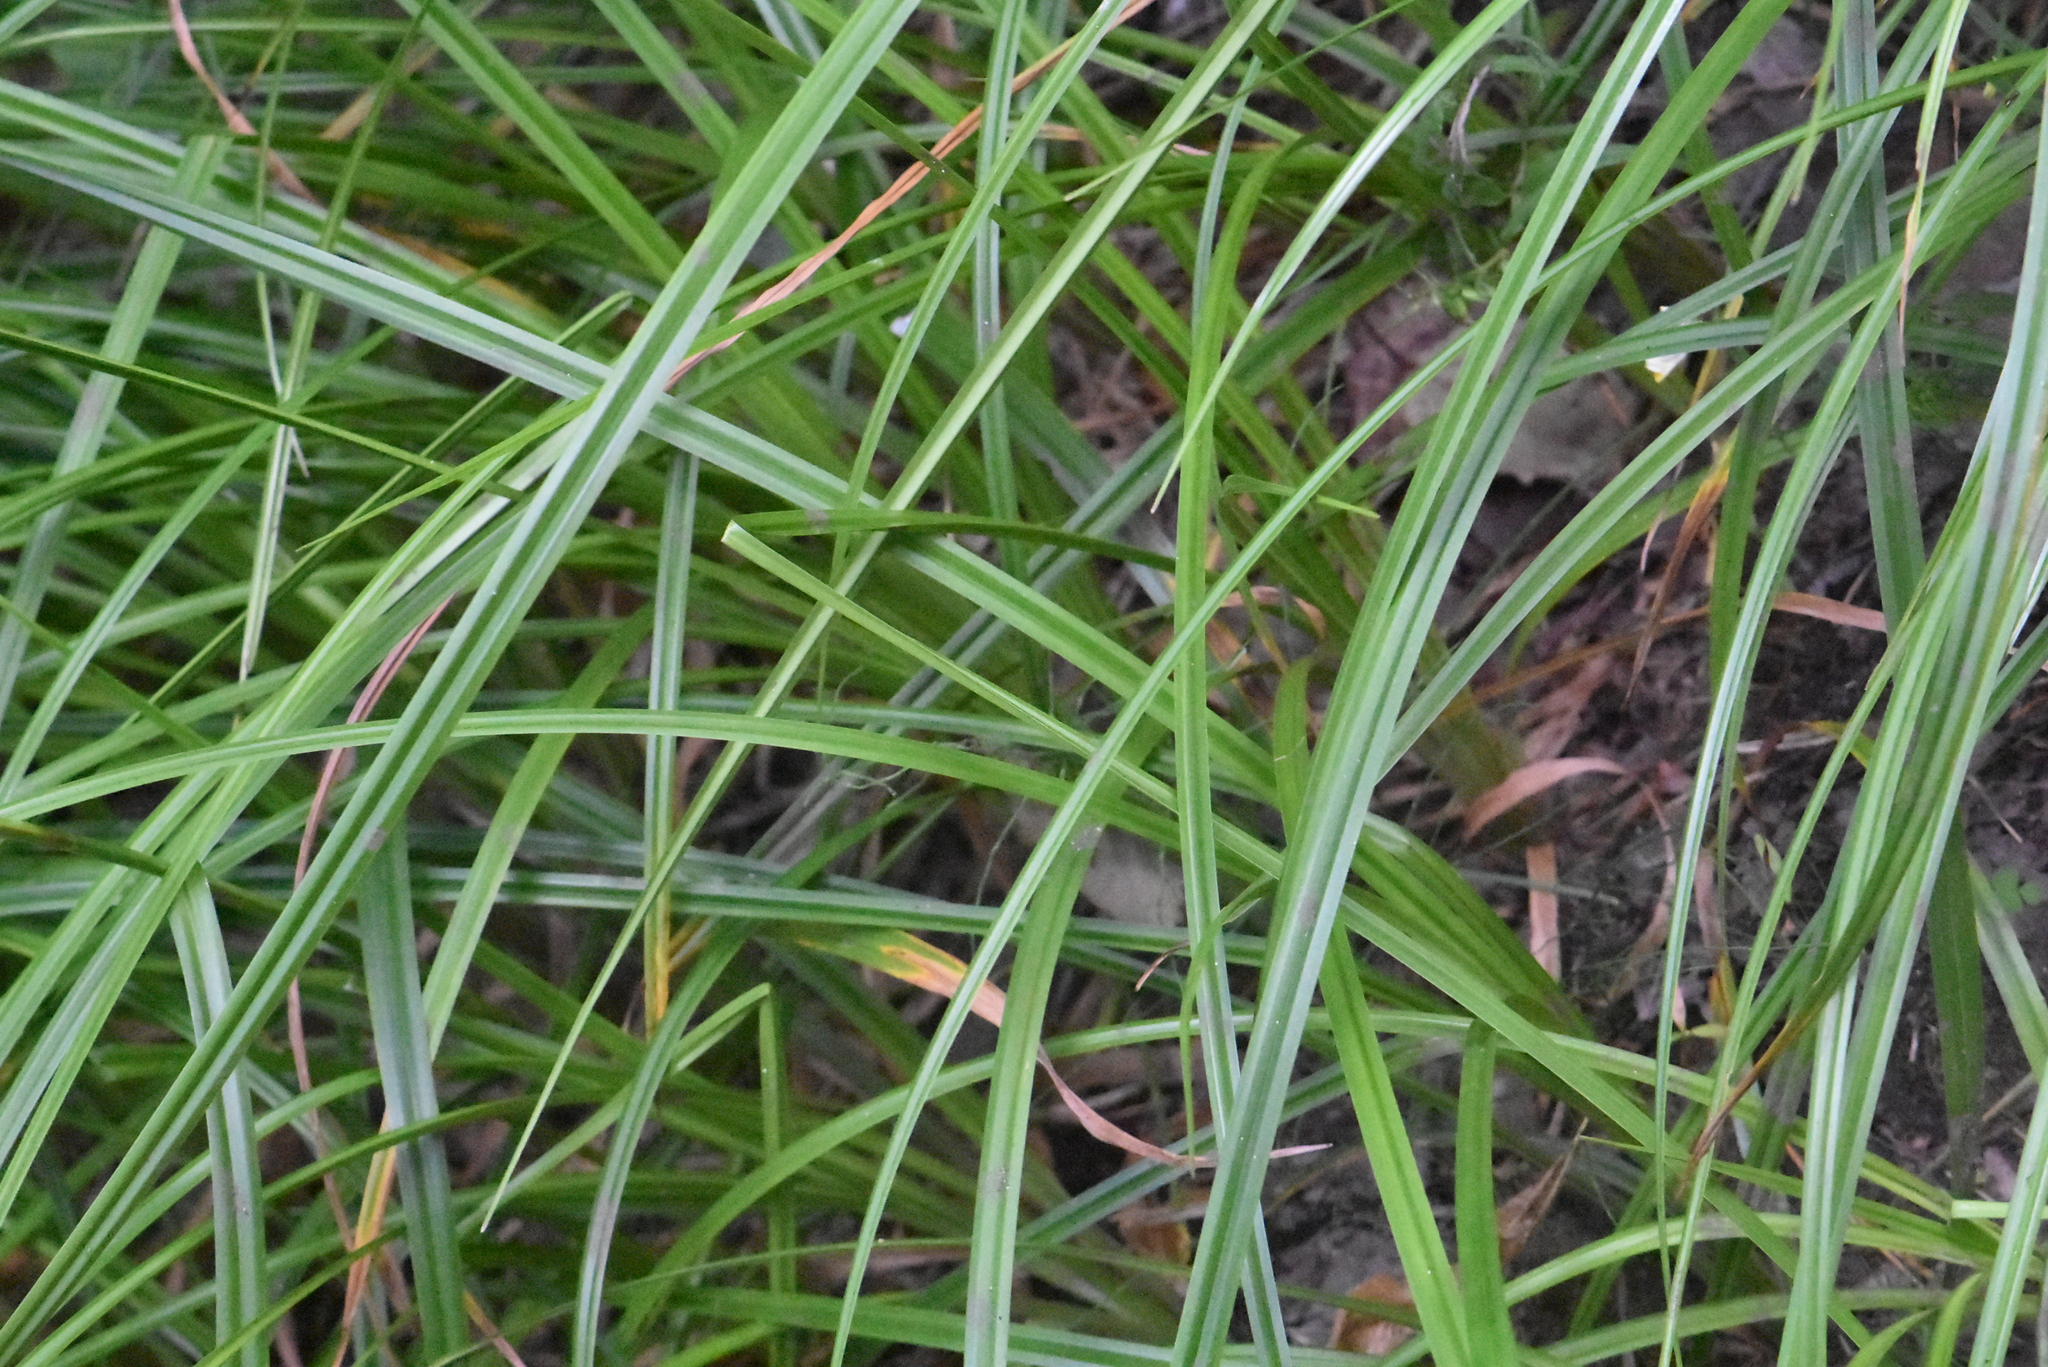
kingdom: Plantae
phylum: Tracheophyta
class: Liliopsida
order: Poales
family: Cyperaceae
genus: Scirpus
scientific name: Scirpus sylvaticus
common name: Wood club-rush
